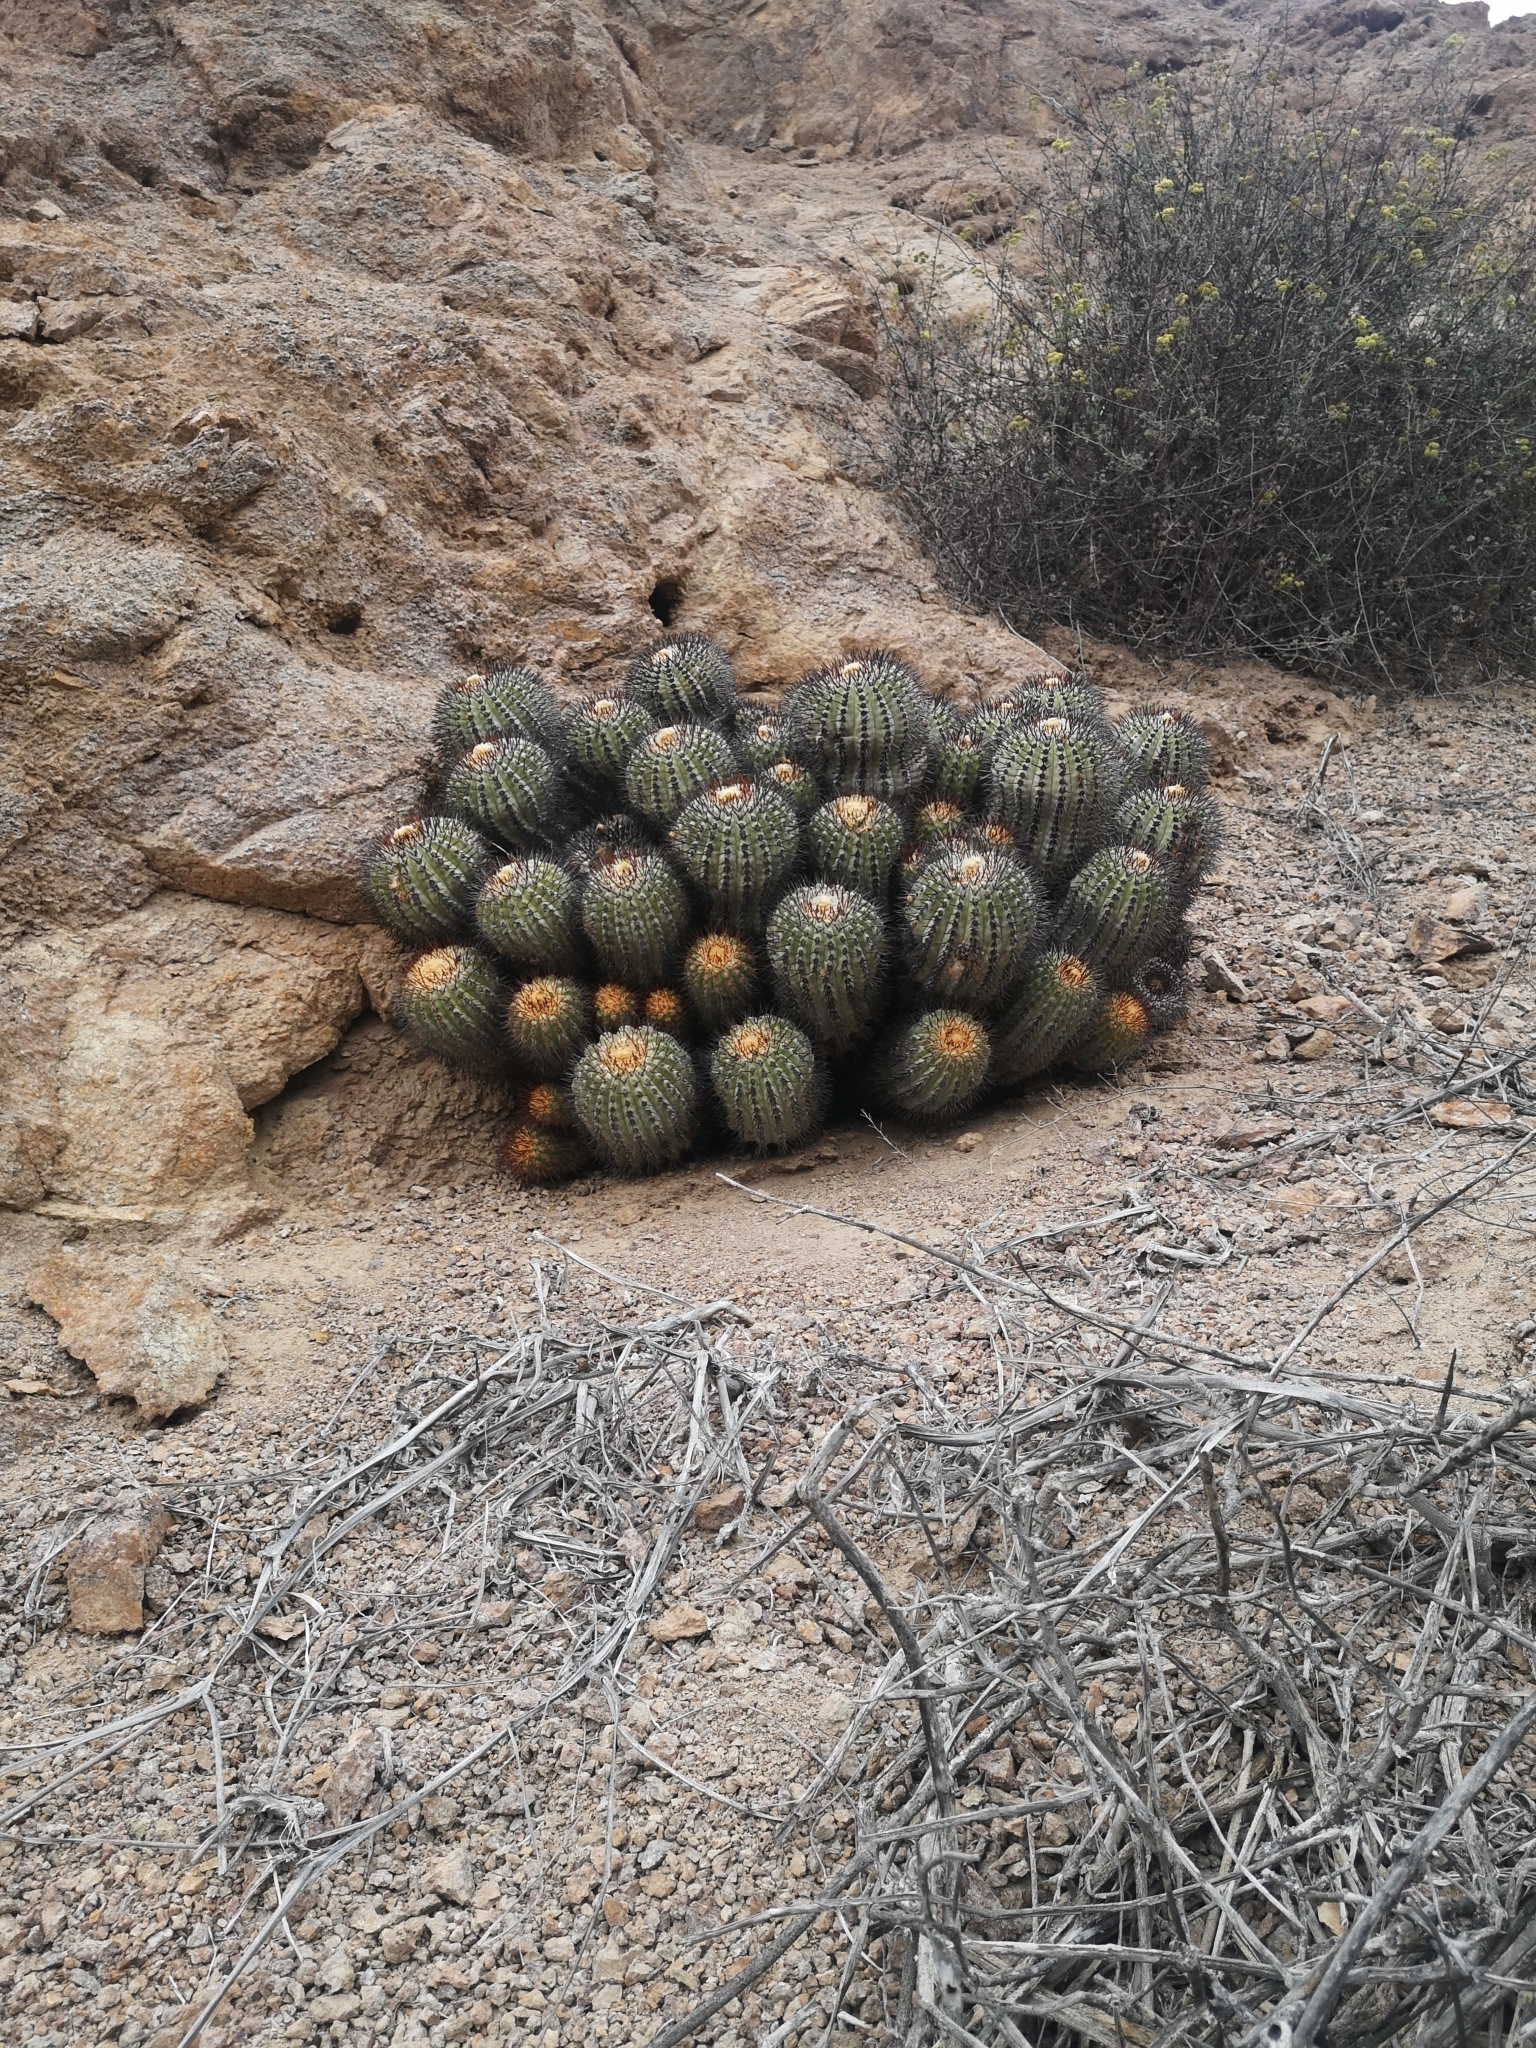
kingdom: Plantae
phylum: Tracheophyta
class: Magnoliopsida
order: Caryophyllales
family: Cactaceae
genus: Copiapoa
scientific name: Copiapoa longistaminea
